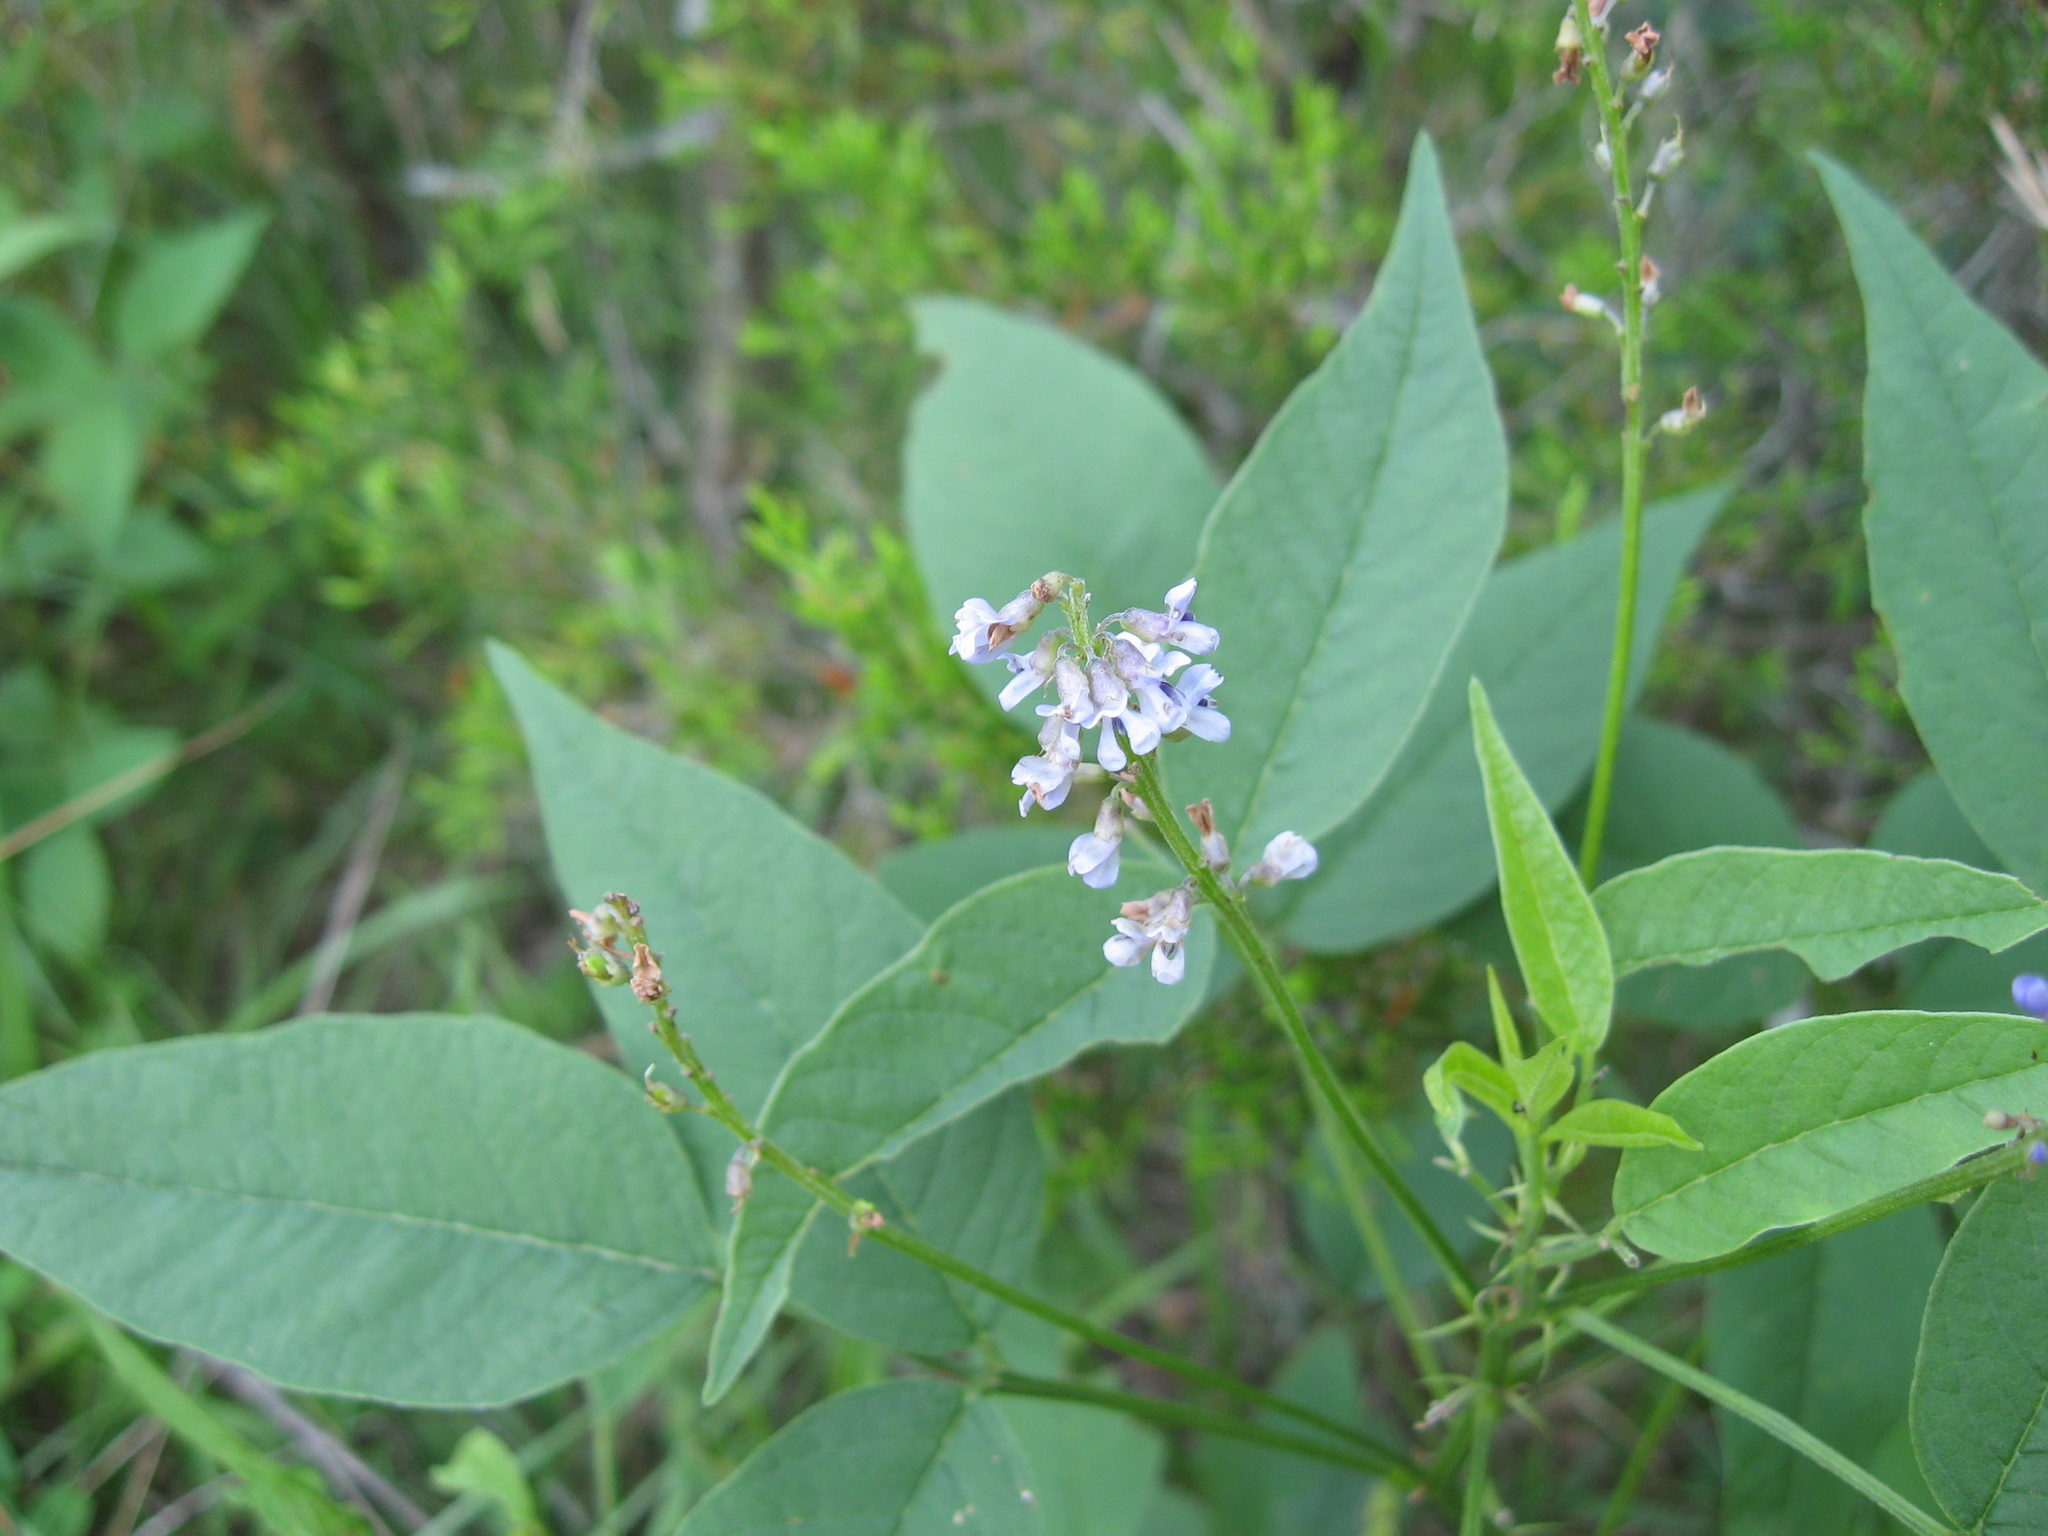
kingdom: Plantae
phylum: Tracheophyta
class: Magnoliopsida
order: Fabales
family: Fabaceae
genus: Orbexilum
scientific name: Orbexilum onobrychis
